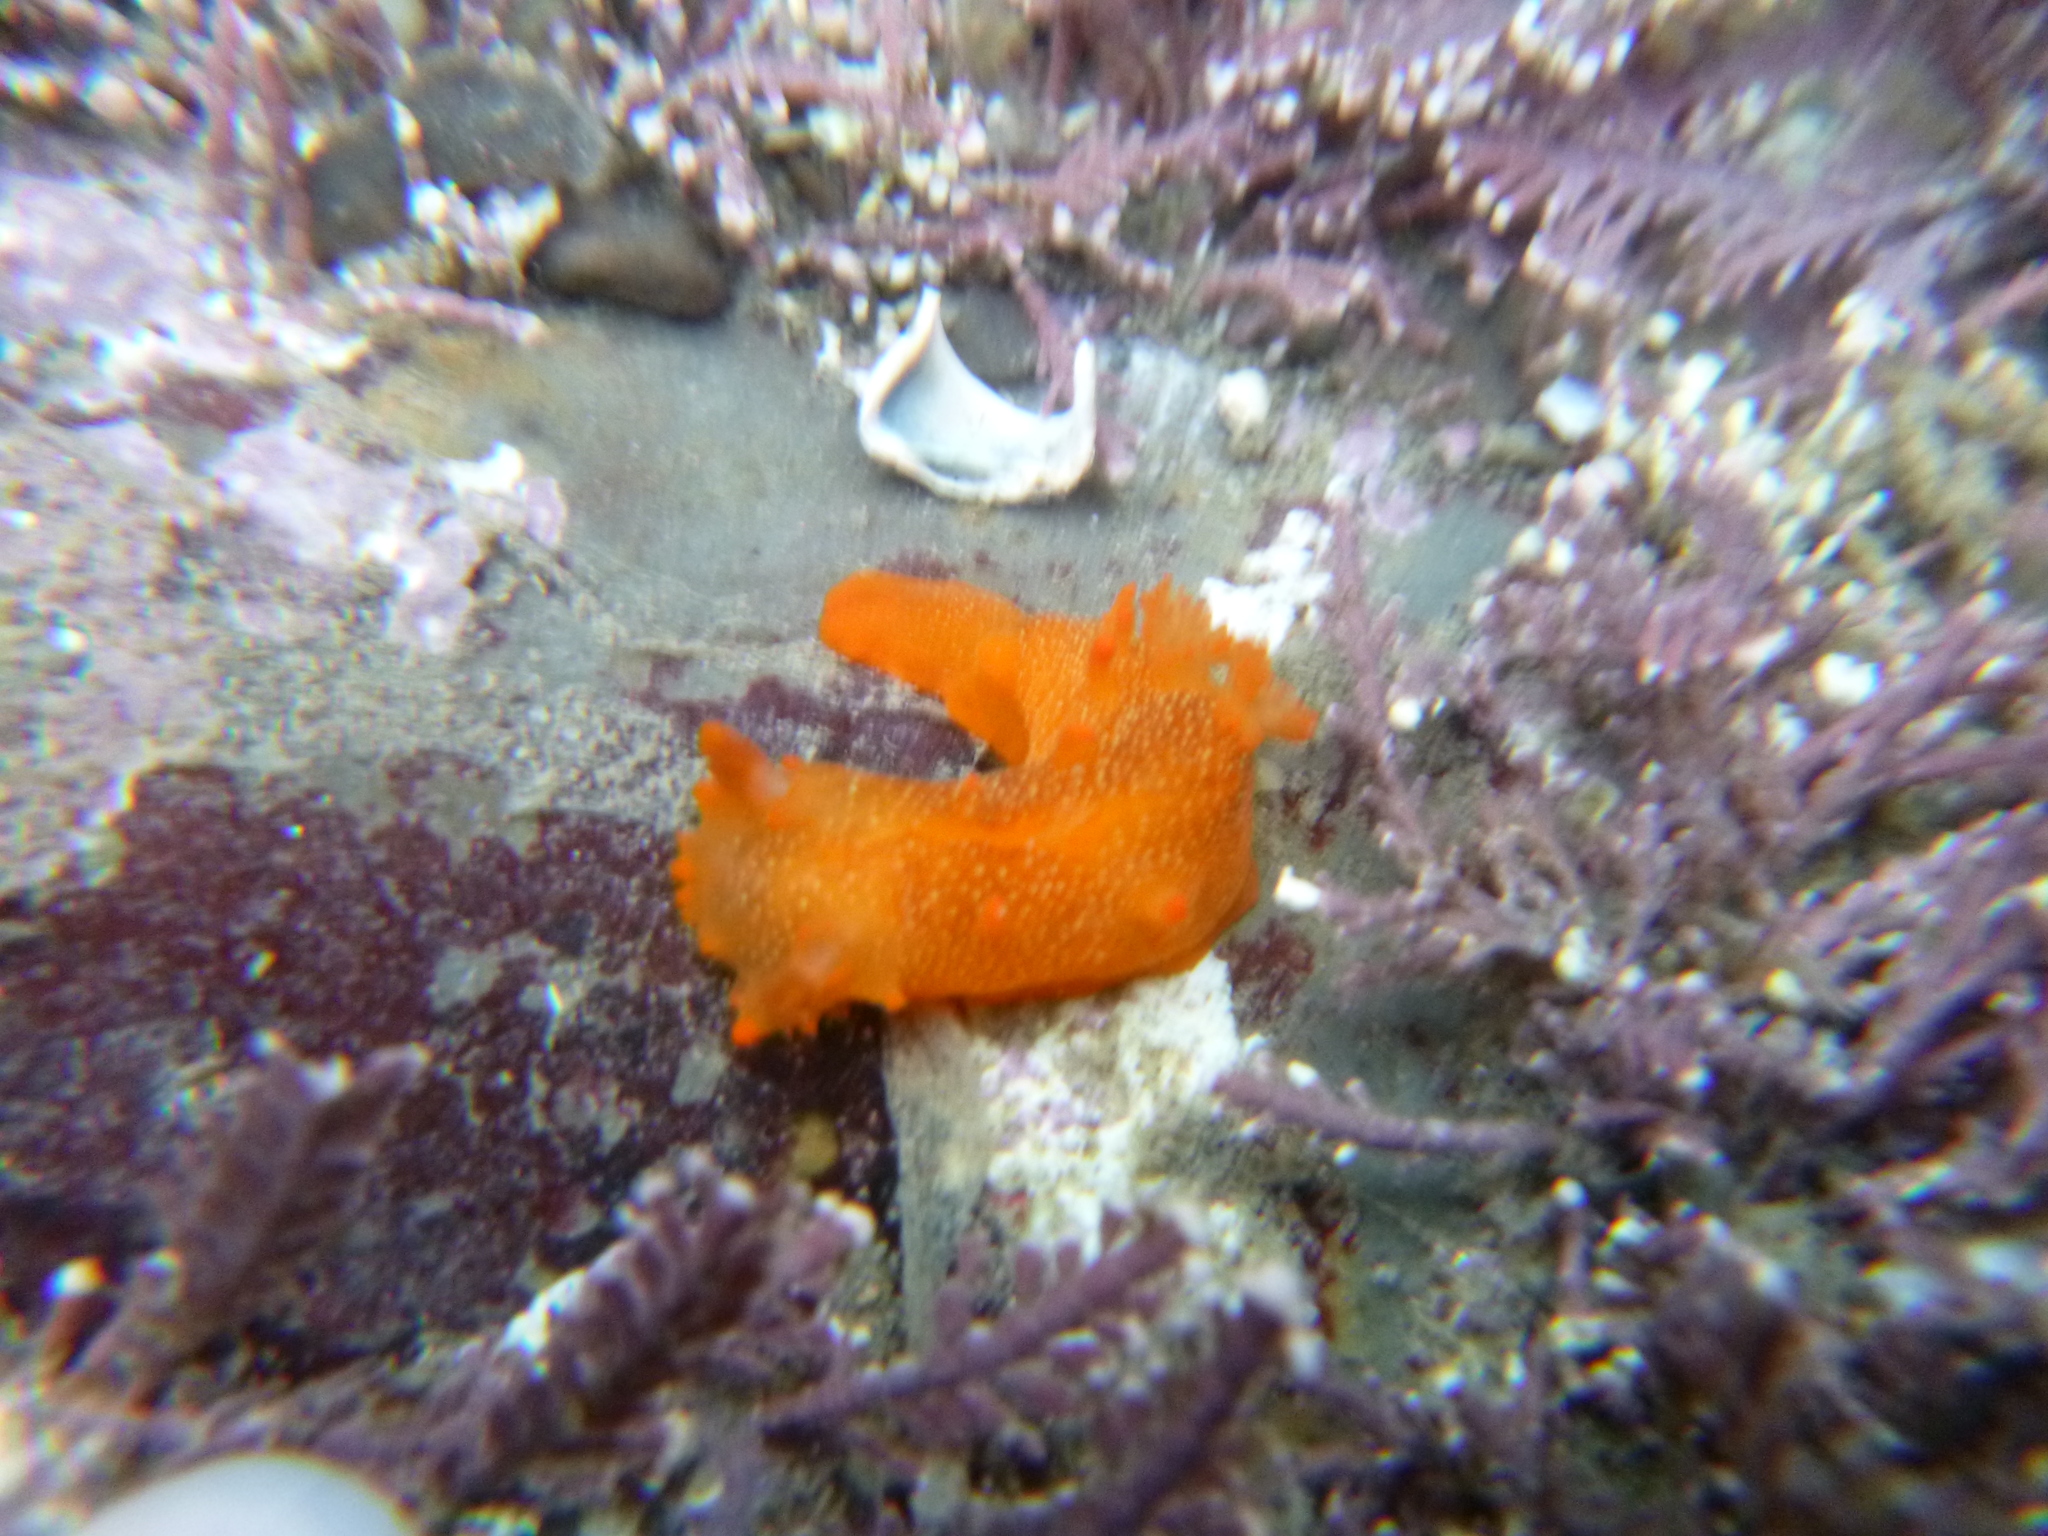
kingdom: Animalia
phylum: Mollusca
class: Gastropoda
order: Nudibranchia
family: Polyceridae
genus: Triopha
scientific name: Triopha maculata
